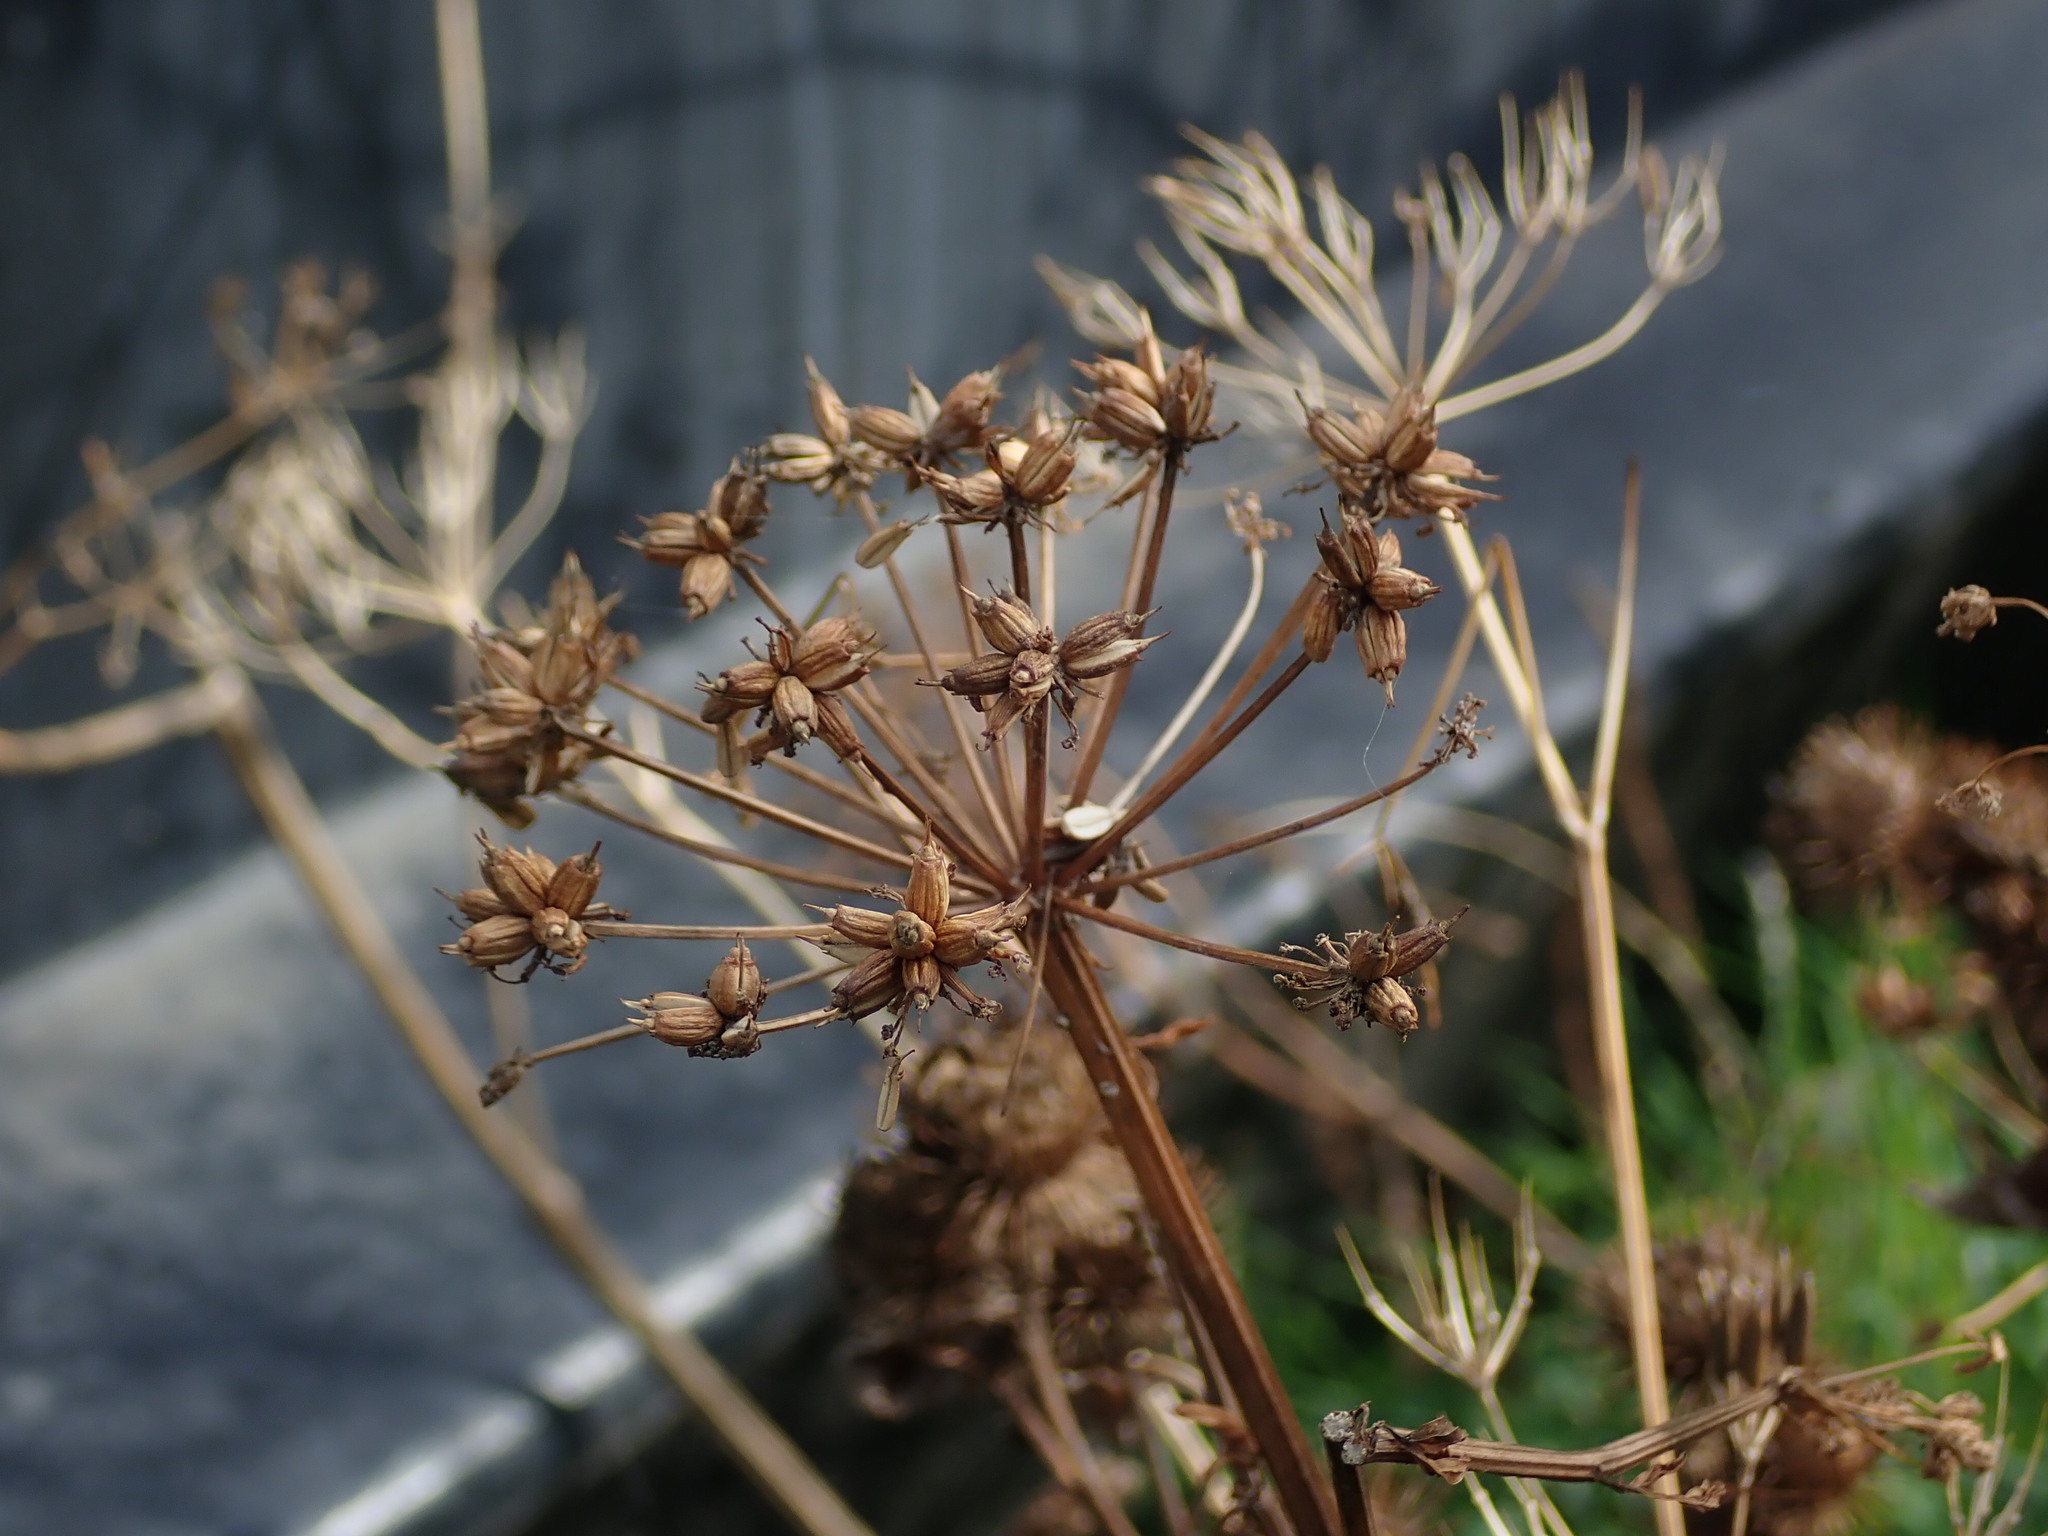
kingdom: Plantae
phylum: Tracheophyta
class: Magnoliopsida
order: Apiales
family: Apiaceae
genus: Oenanthe
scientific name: Oenanthe crocata
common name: Hemlock water-dropwort
